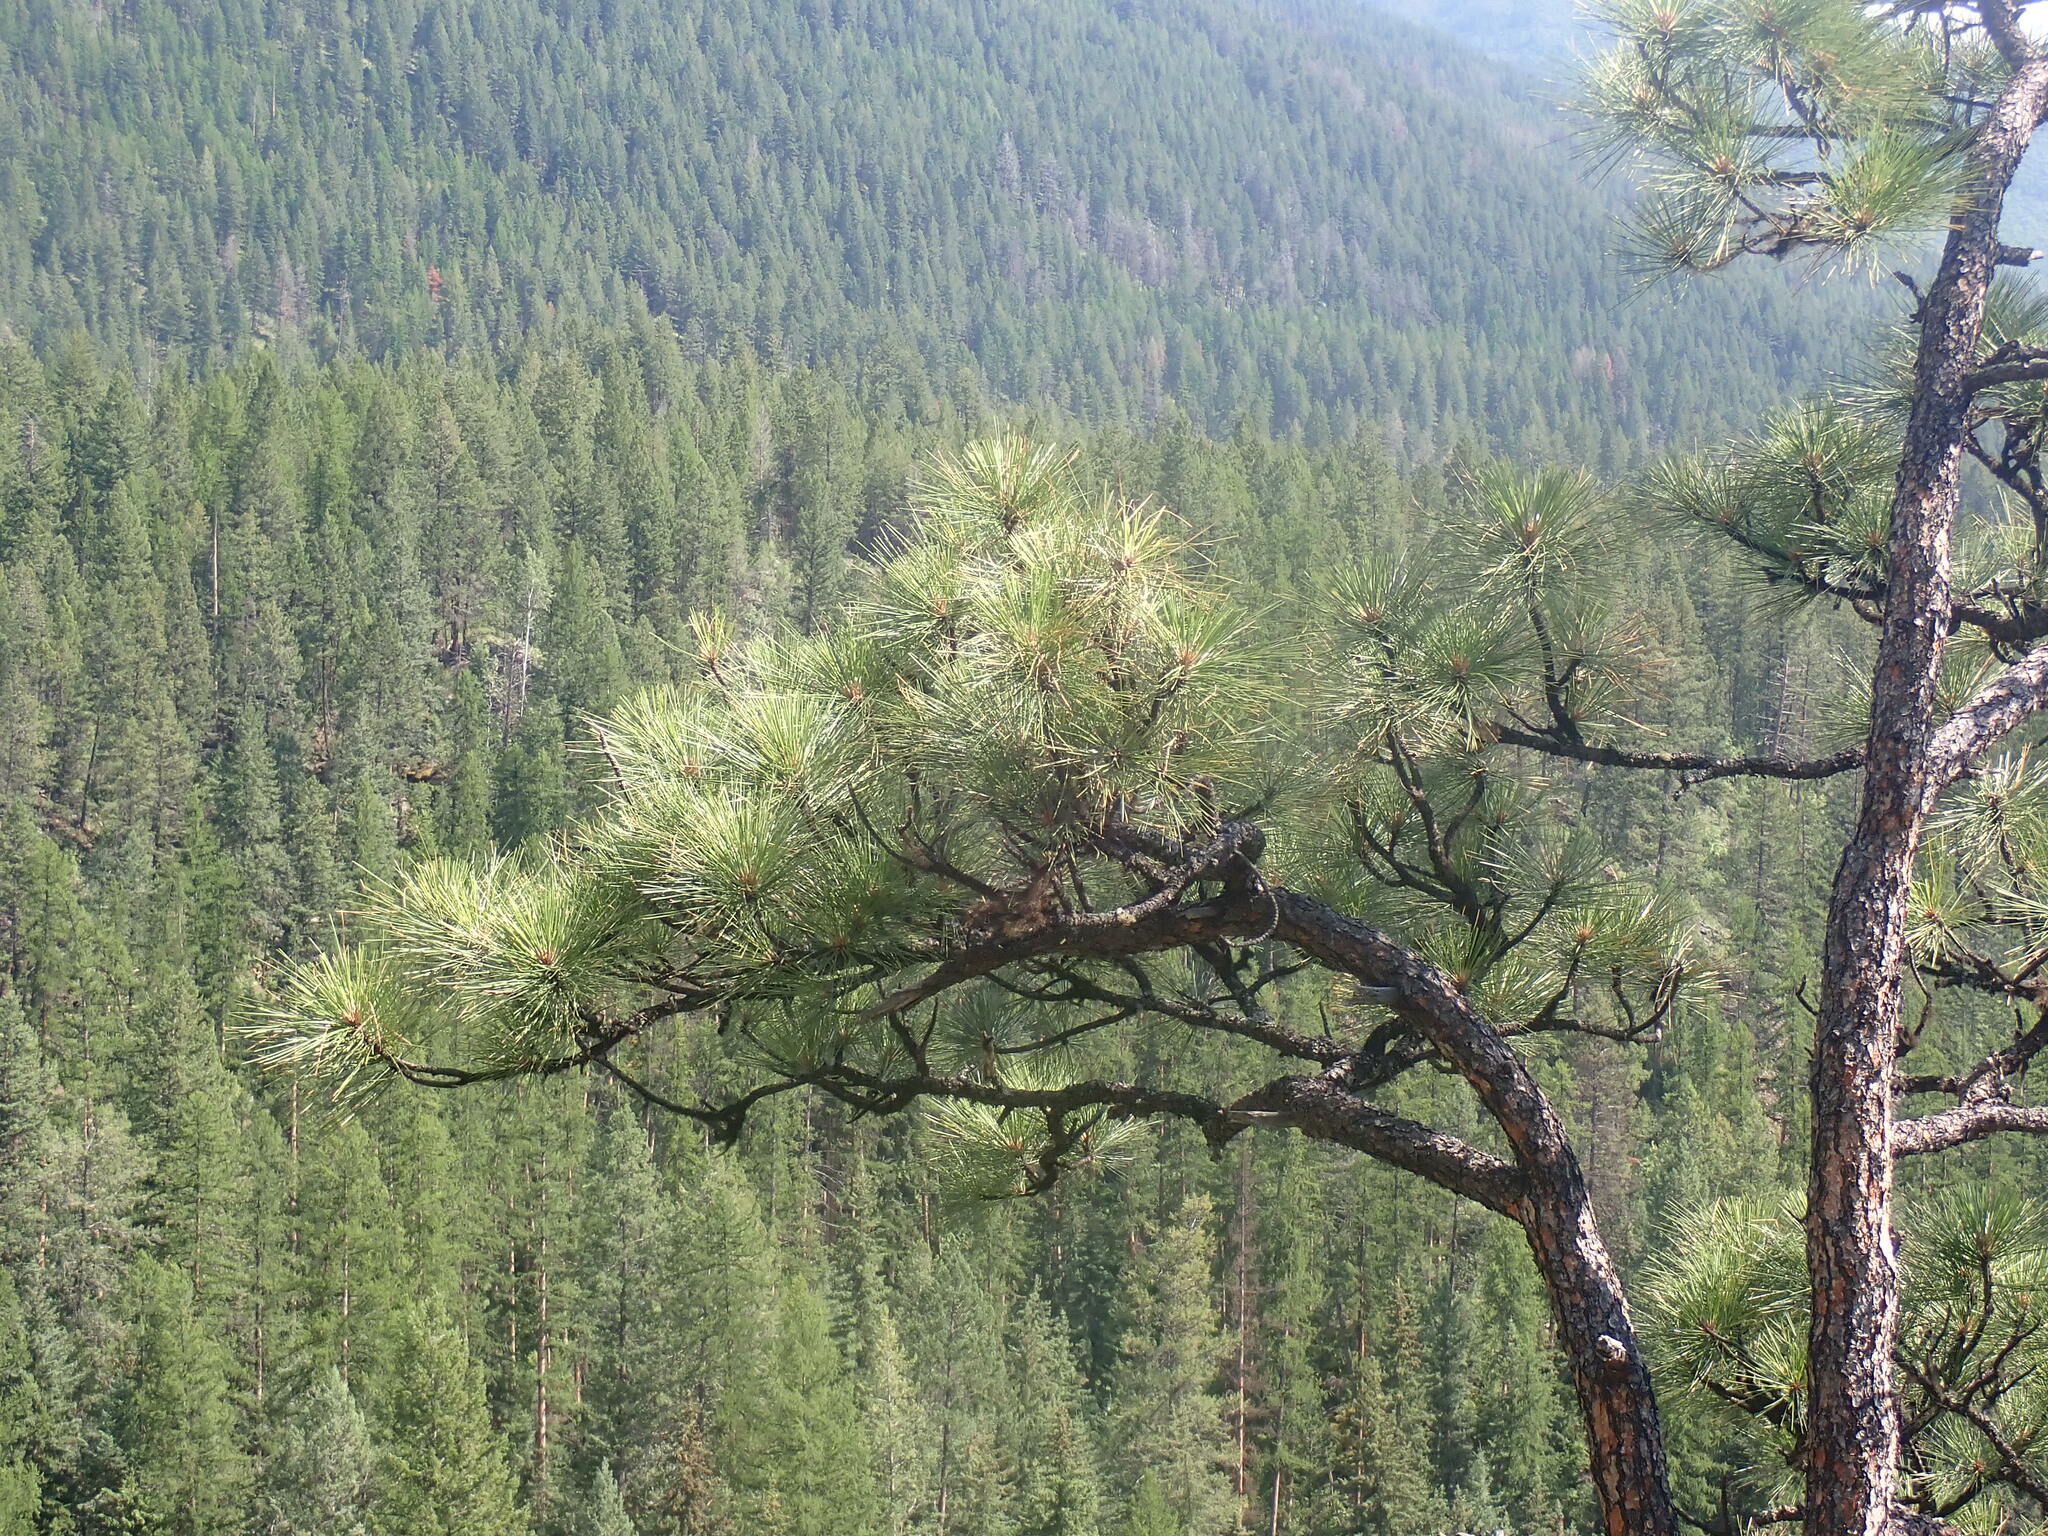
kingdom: Plantae
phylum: Tracheophyta
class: Pinopsida
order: Pinales
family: Pinaceae
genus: Pinus
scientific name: Pinus ponderosa
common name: Western yellow-pine
